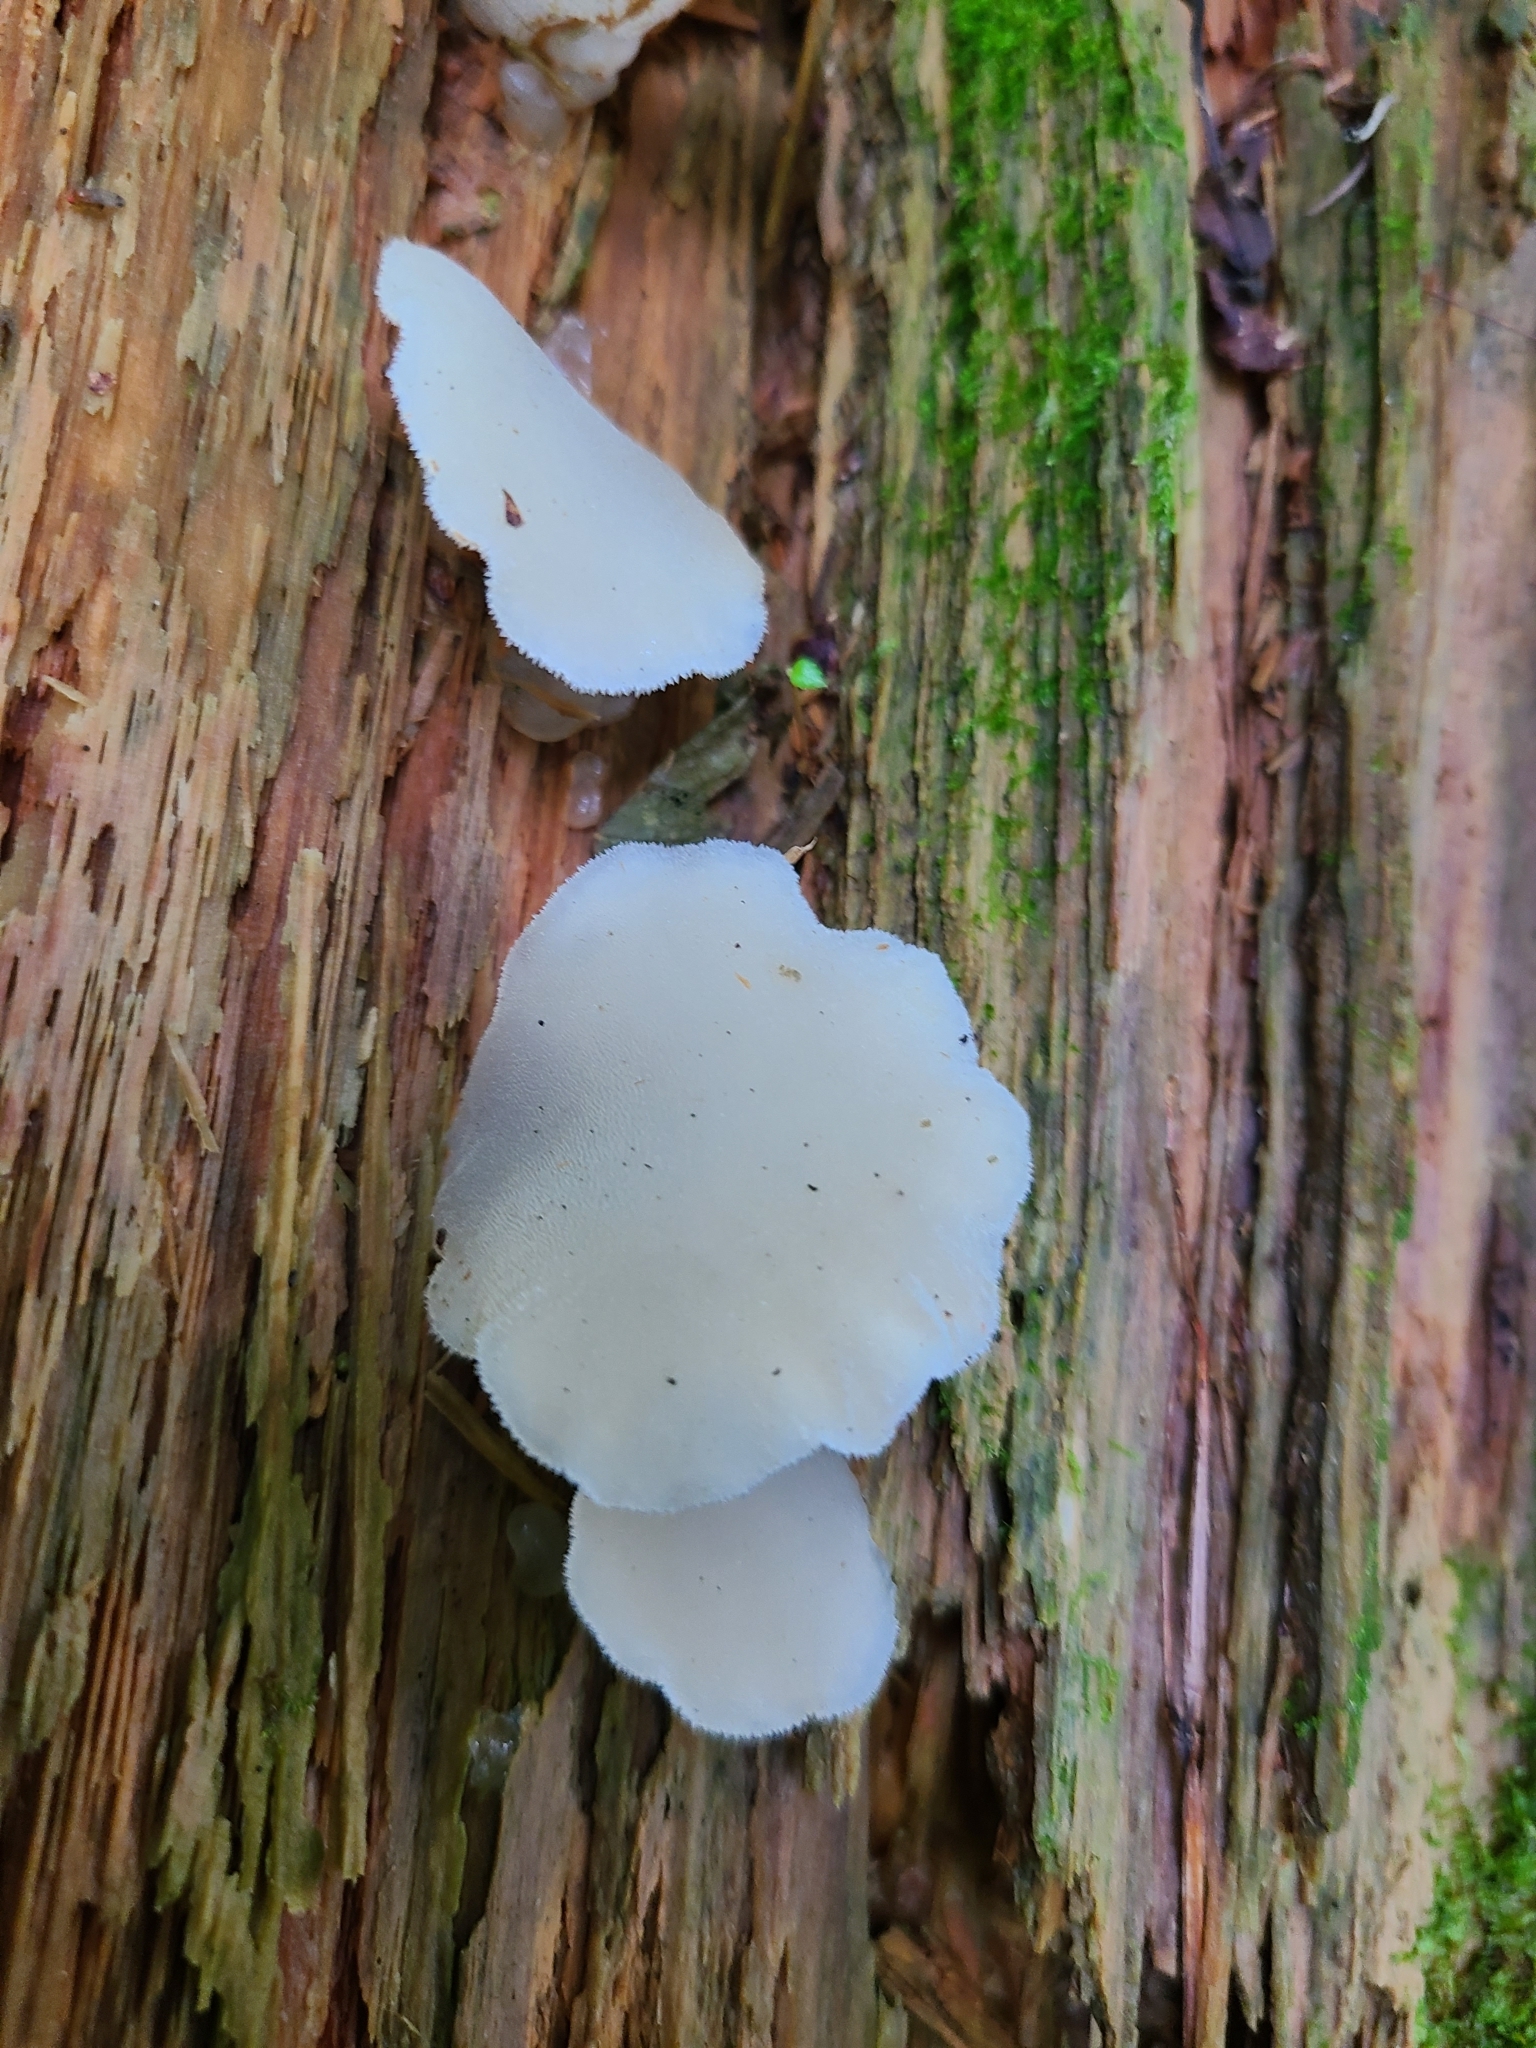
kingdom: Fungi
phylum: Basidiomycota
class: Agaricomycetes
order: Auriculariales
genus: Pseudohydnum
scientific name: Pseudohydnum gelatinosum
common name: Jelly tongue
